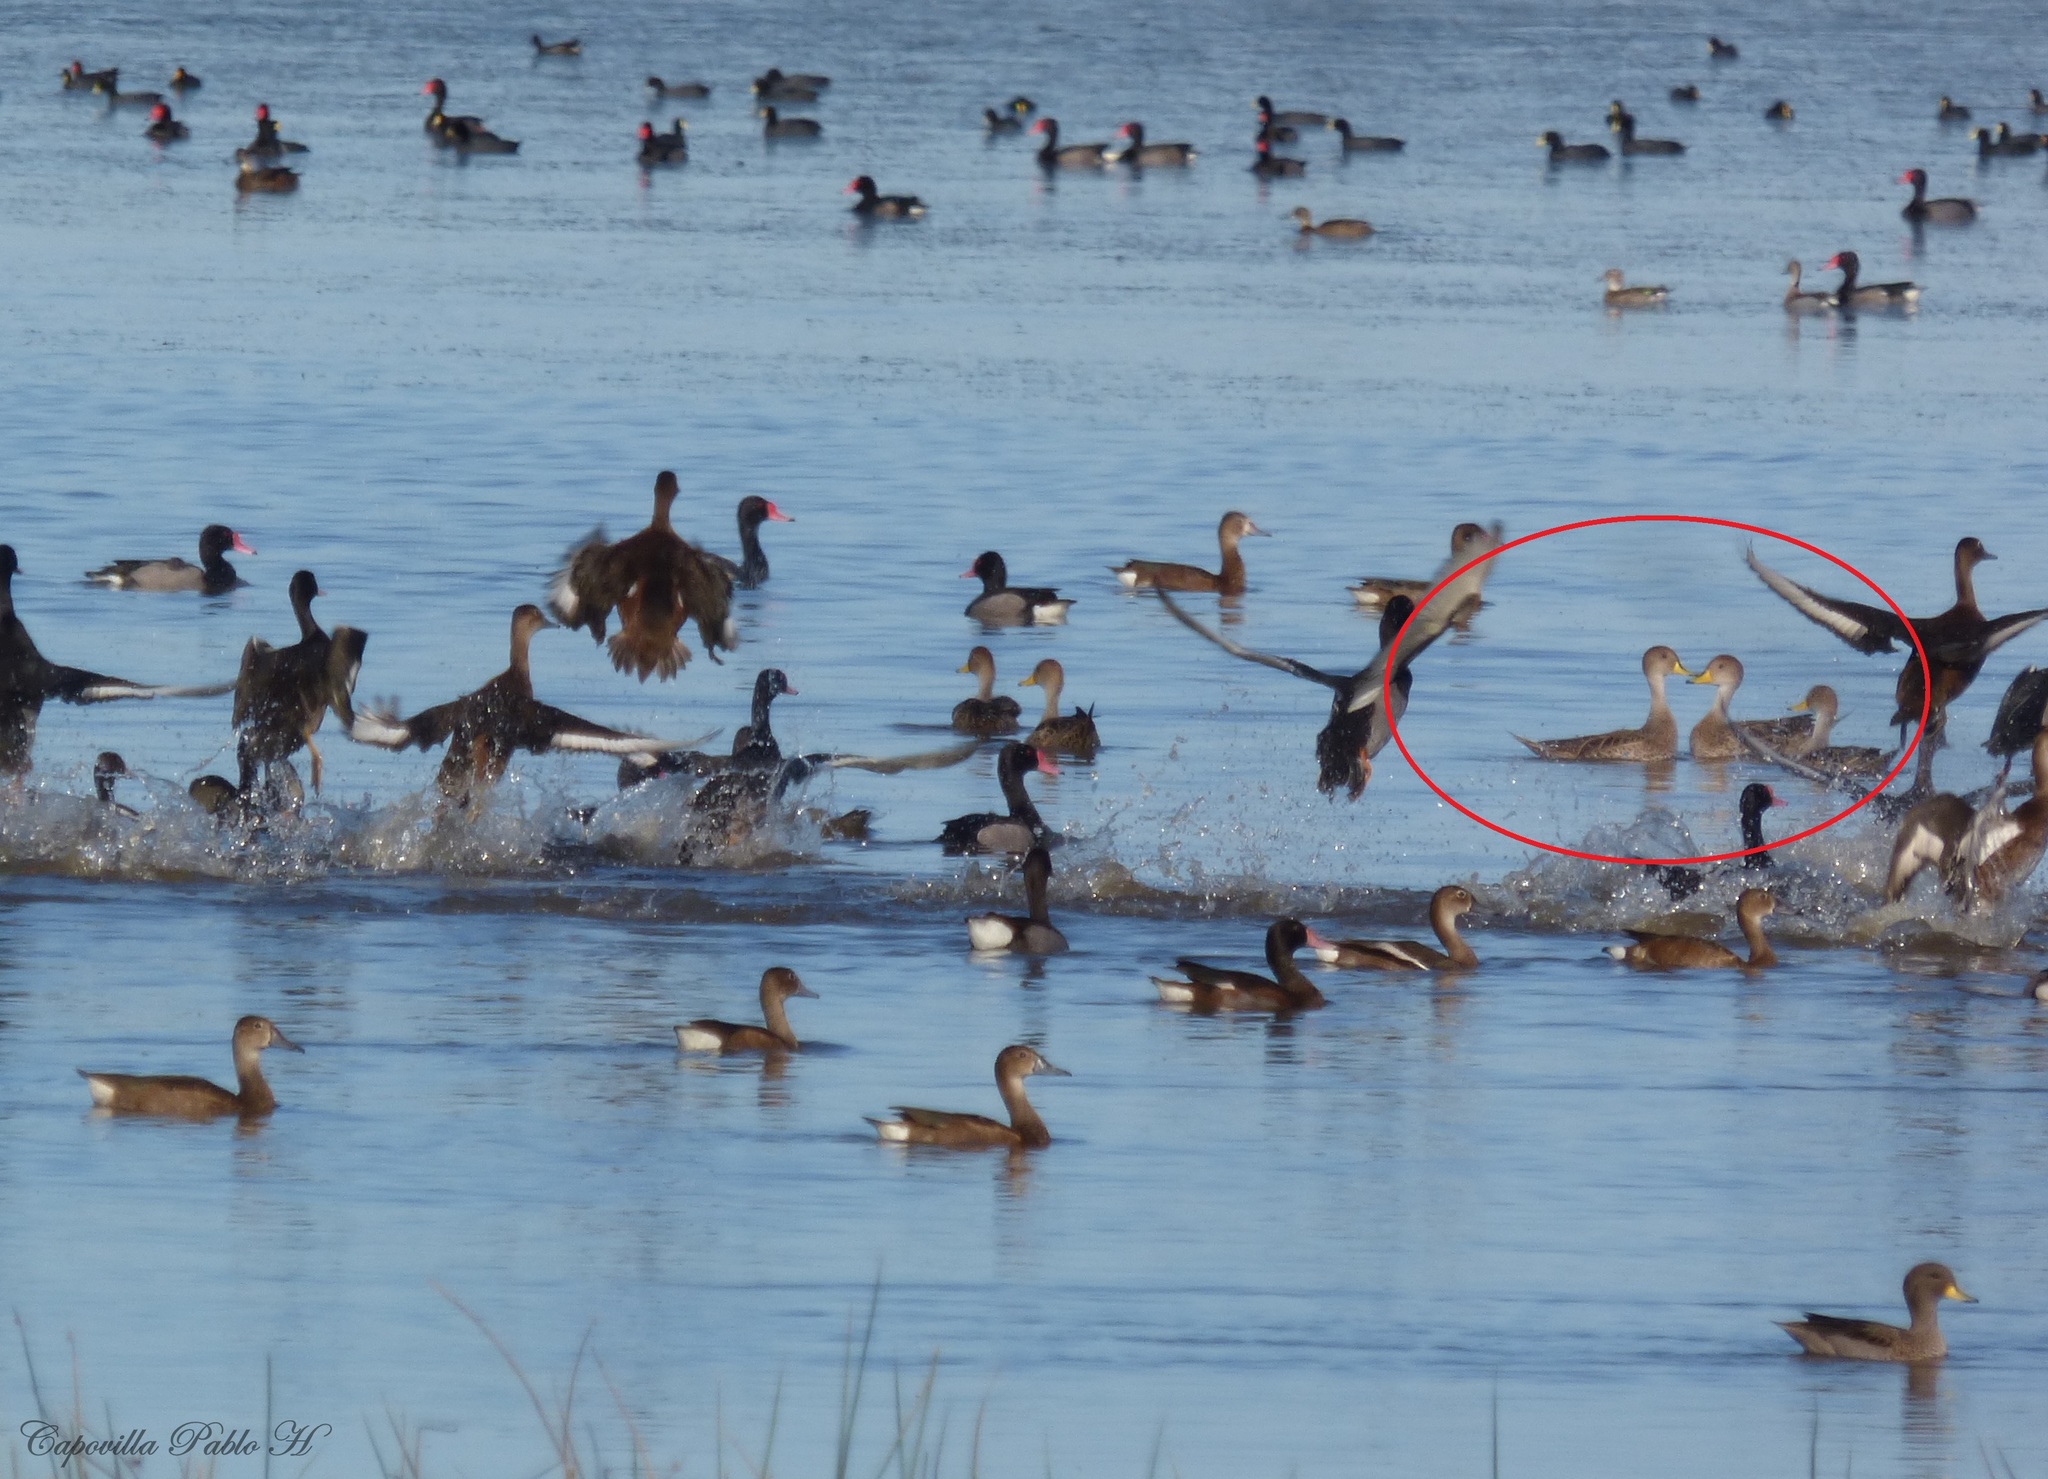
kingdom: Animalia
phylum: Chordata
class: Aves
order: Anseriformes
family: Anatidae
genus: Anas
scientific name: Anas georgica
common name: Yellow-billed pintail
